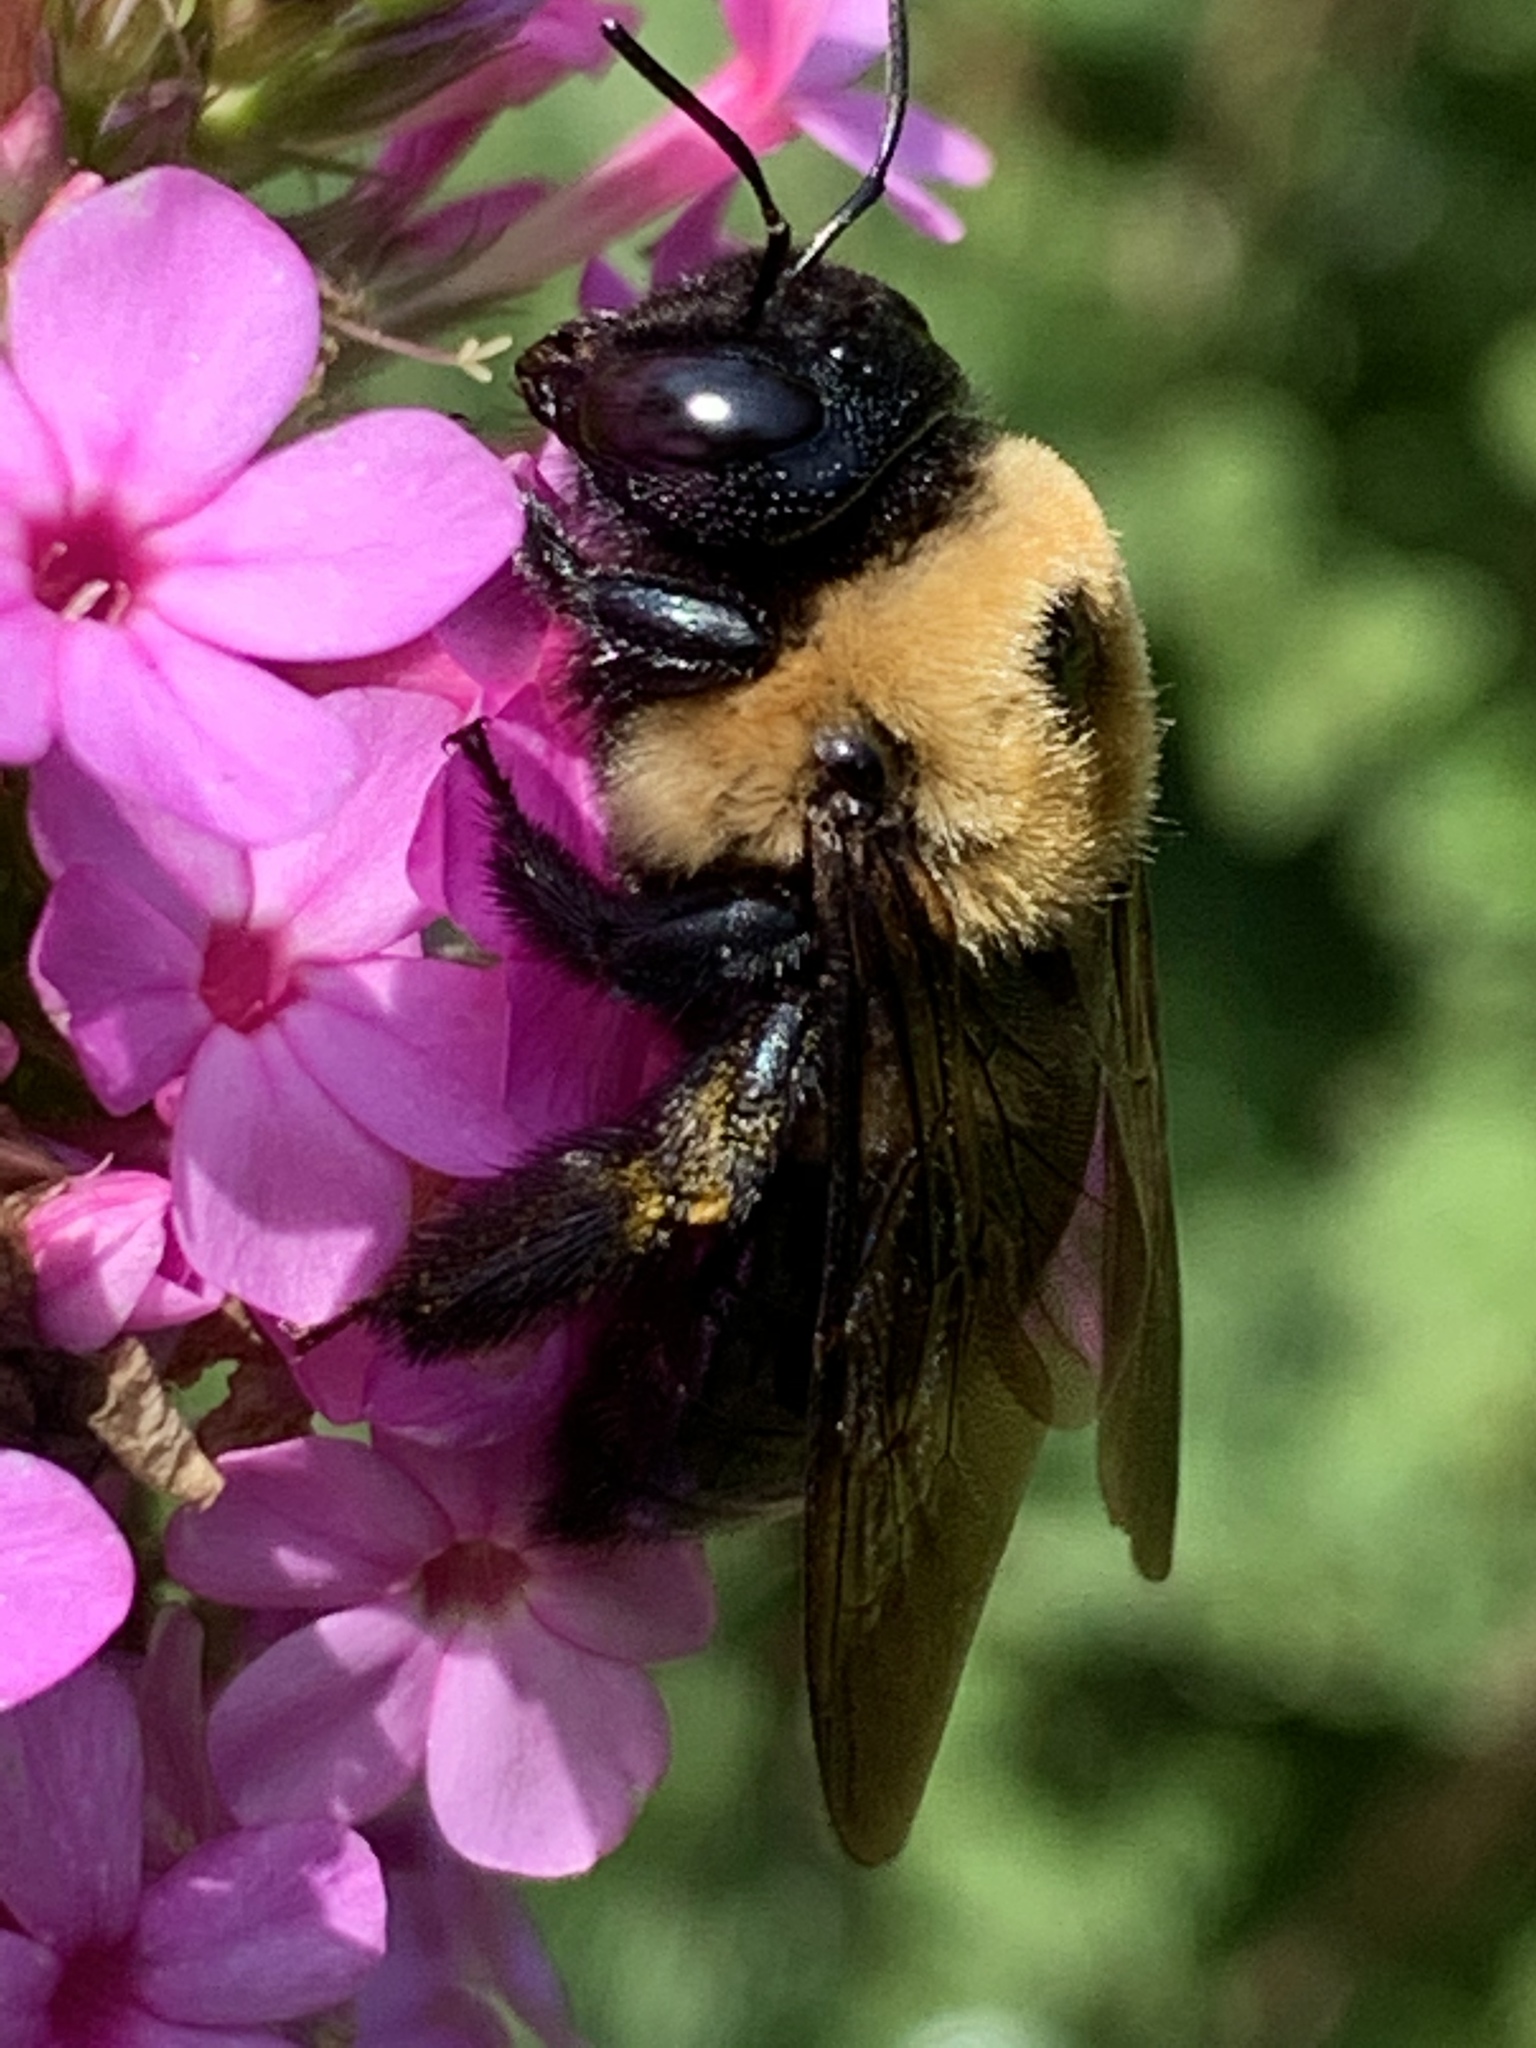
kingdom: Animalia
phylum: Arthropoda
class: Insecta
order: Hymenoptera
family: Apidae
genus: Xylocopa
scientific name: Xylocopa virginica
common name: Carpenter bee
